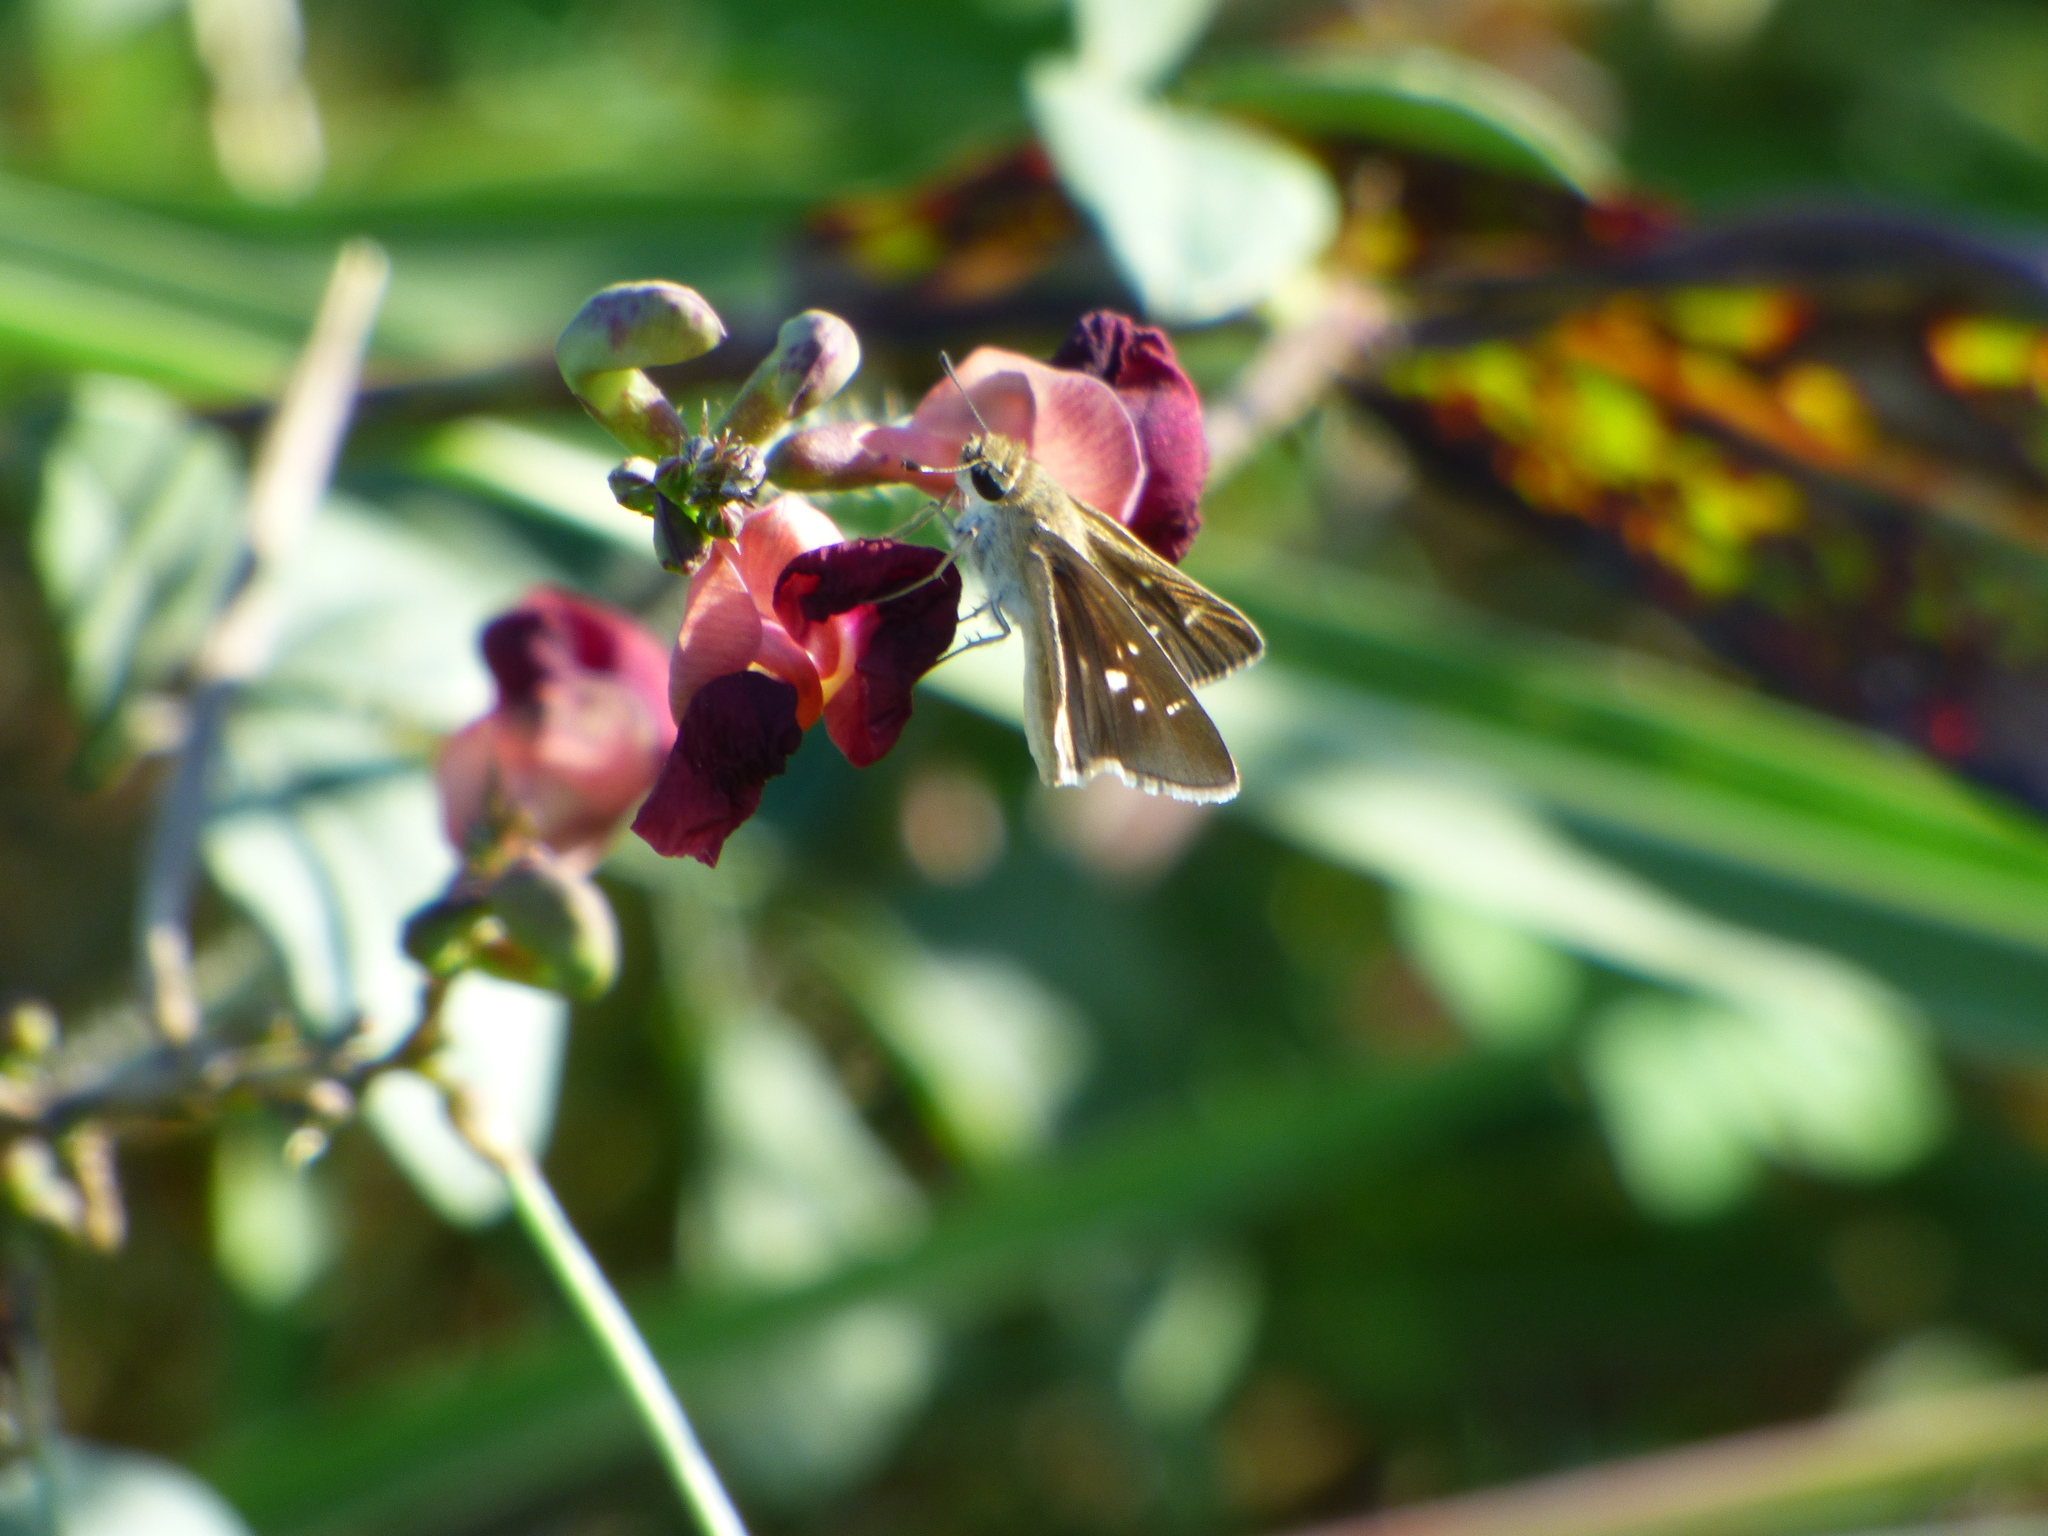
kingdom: Animalia
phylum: Arthropoda
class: Insecta
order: Lepidoptera
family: Hesperiidae
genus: Lerodea
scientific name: Lerodea eufala
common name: Eufala skipper
